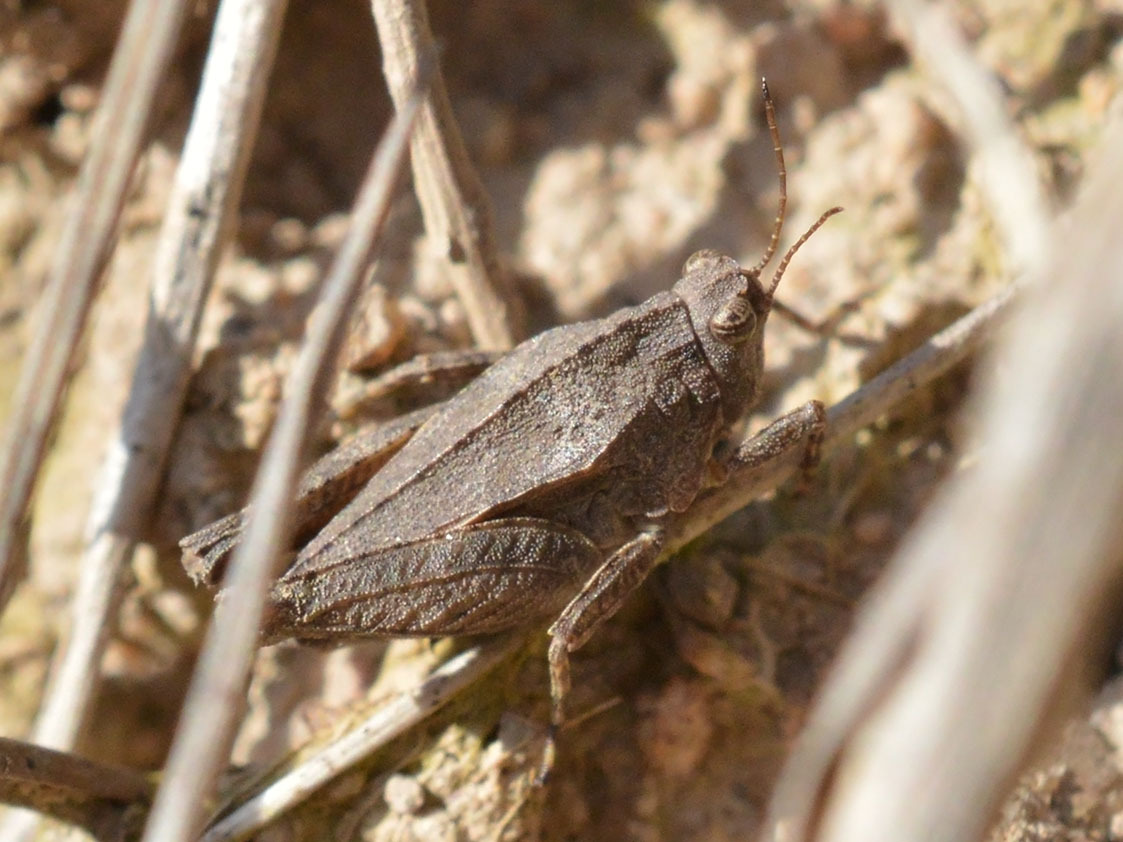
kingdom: Animalia
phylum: Arthropoda
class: Insecta
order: Orthoptera
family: Tetrigidae
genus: Tetrix
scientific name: Tetrix tenuicornis
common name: Long-horned groundhopper
